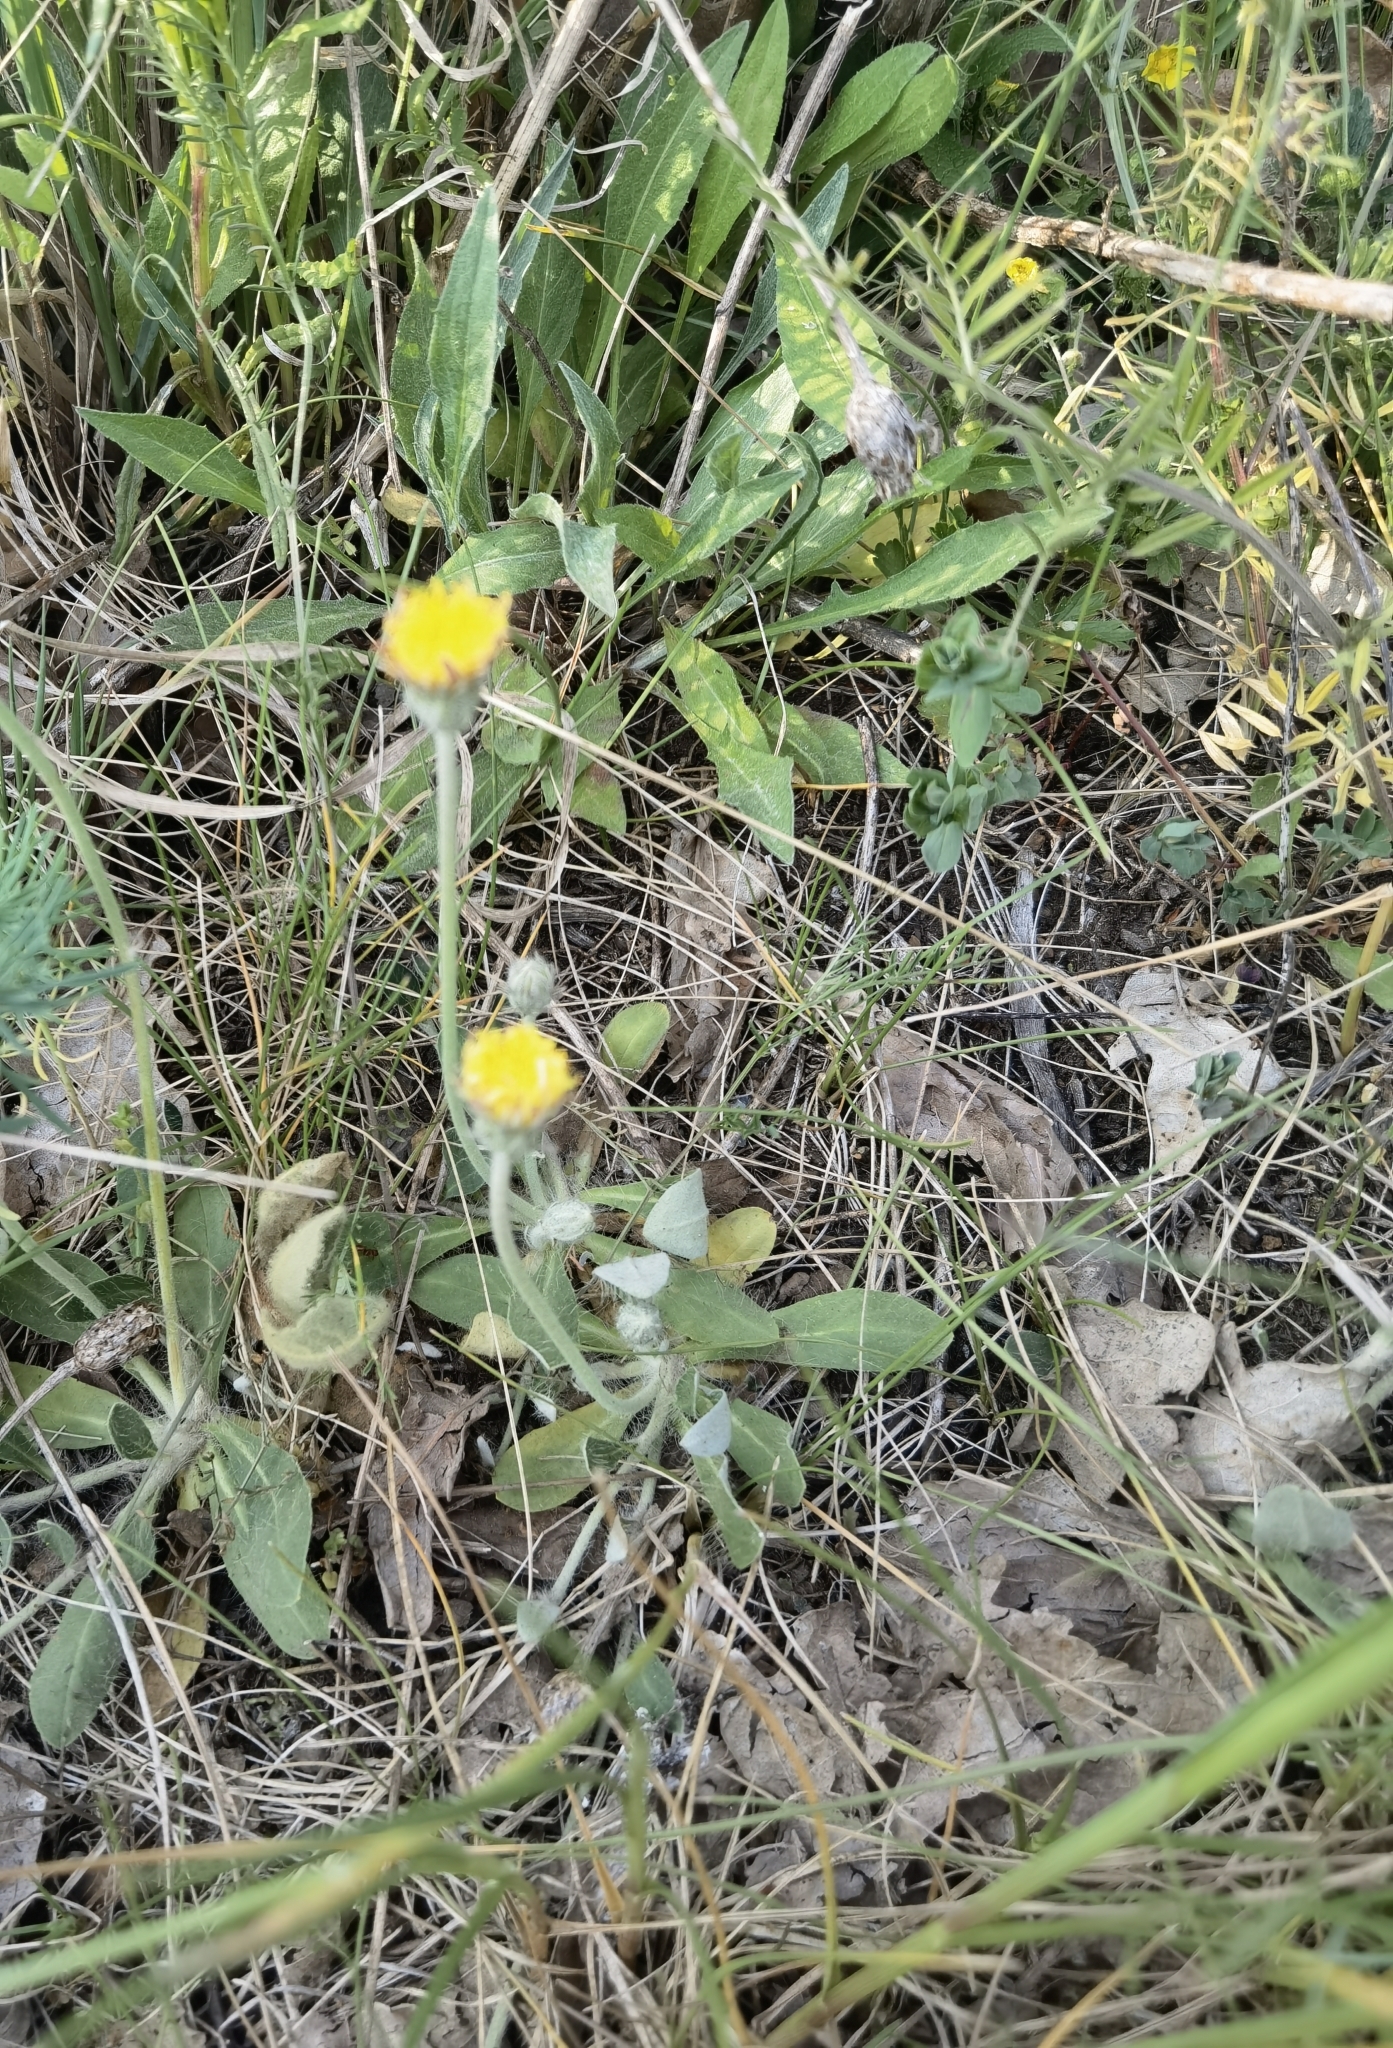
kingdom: Plantae
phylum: Tracheophyta
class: Magnoliopsida
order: Asterales
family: Asteraceae
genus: Pilosella
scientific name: Pilosella officinarum
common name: Mouse-ear hawkweed
